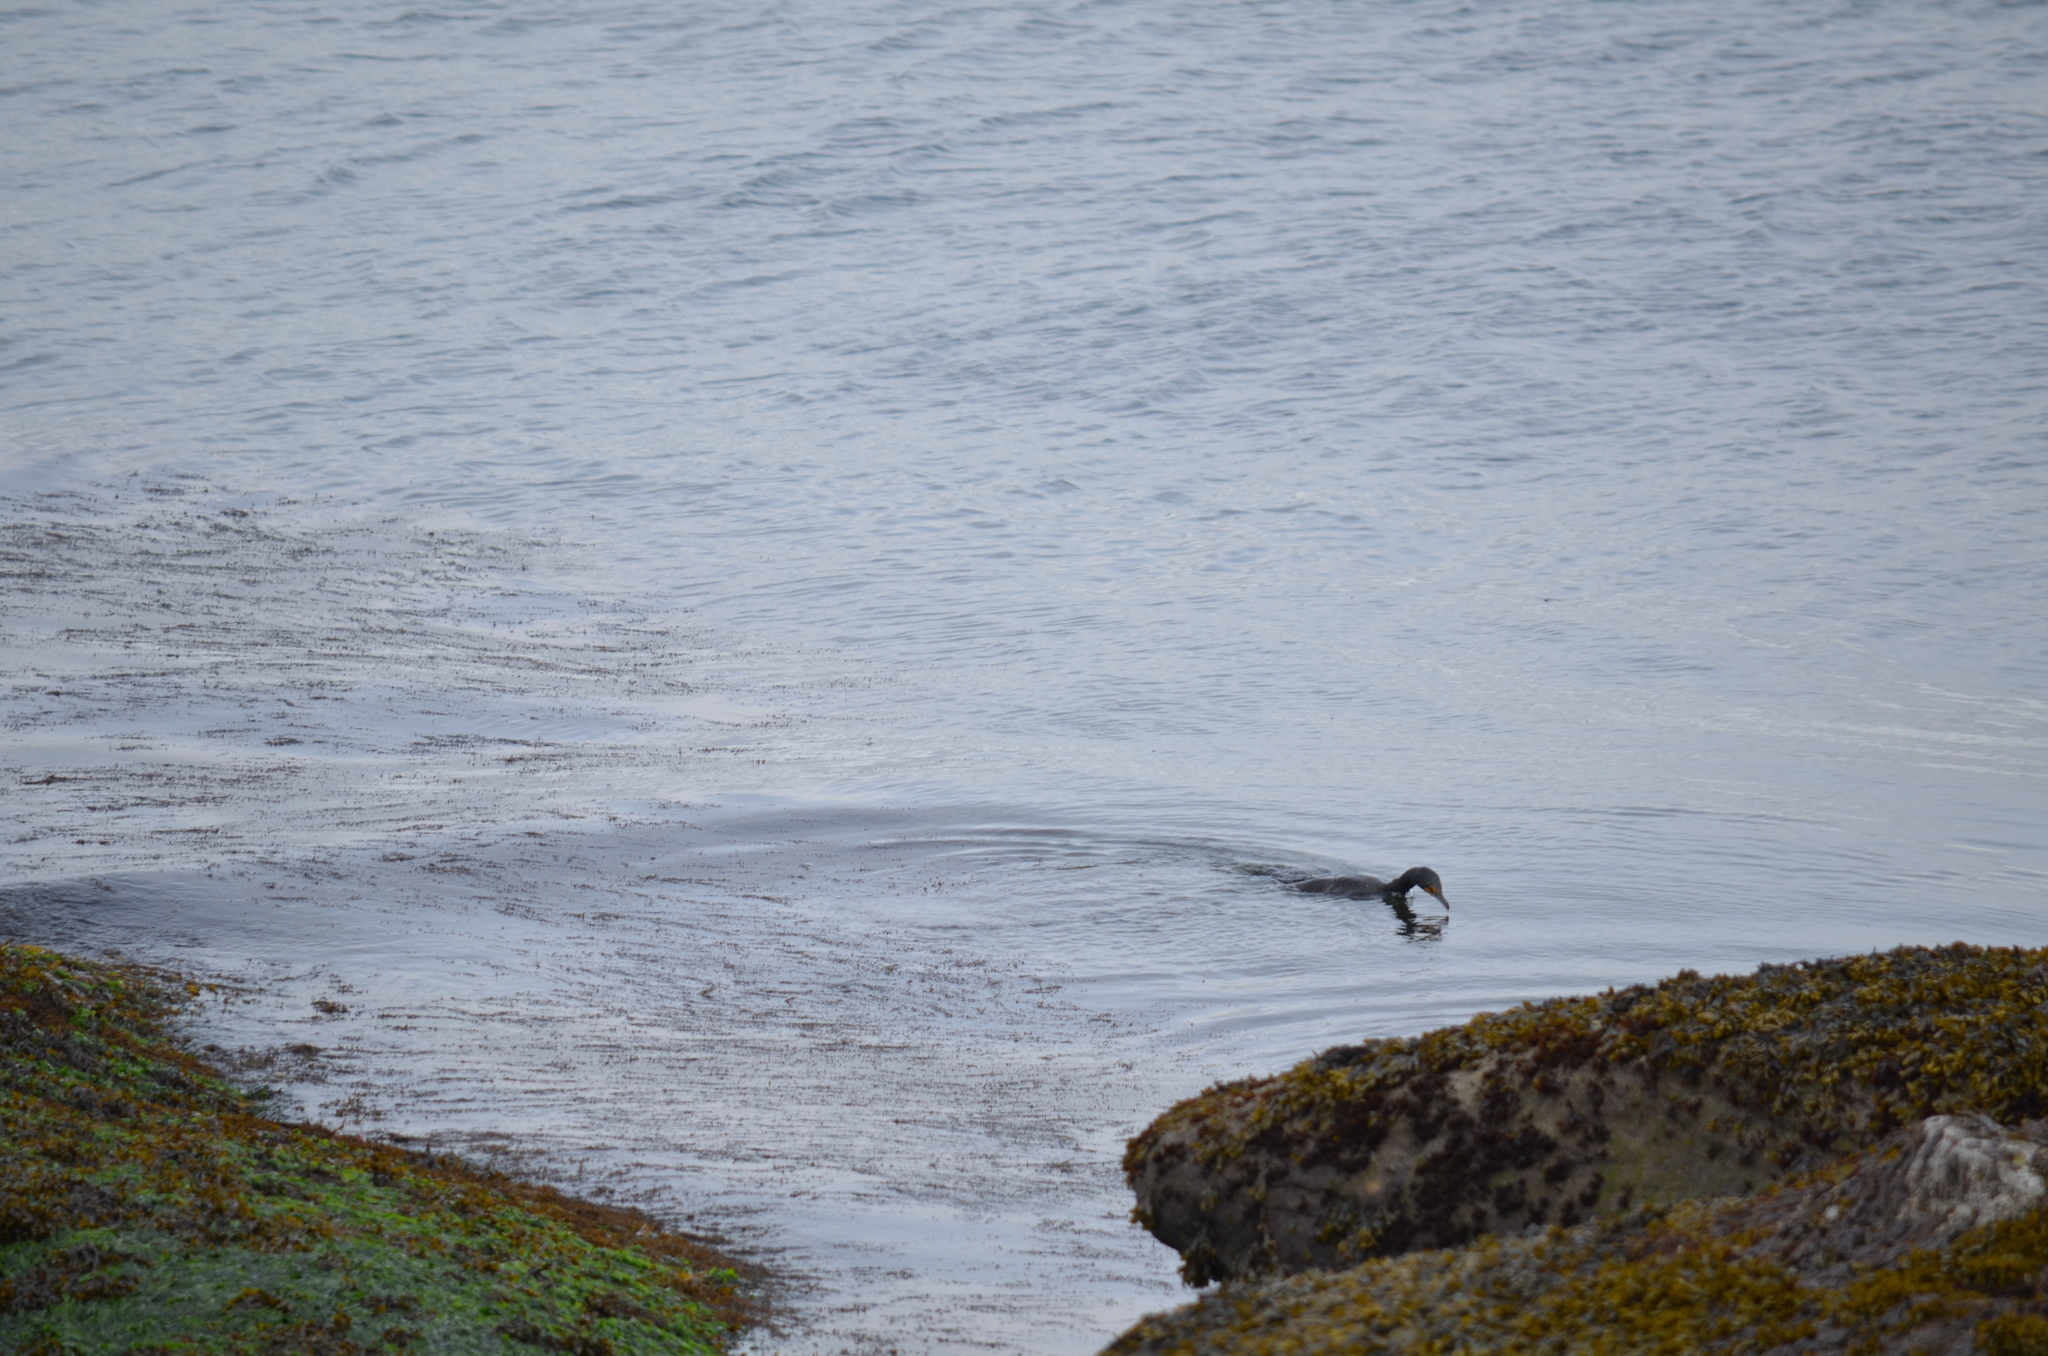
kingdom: Animalia
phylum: Chordata
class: Aves
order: Suliformes
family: Phalacrocoracidae
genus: Phalacrocorax
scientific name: Phalacrocorax auritus
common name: Double-crested cormorant
